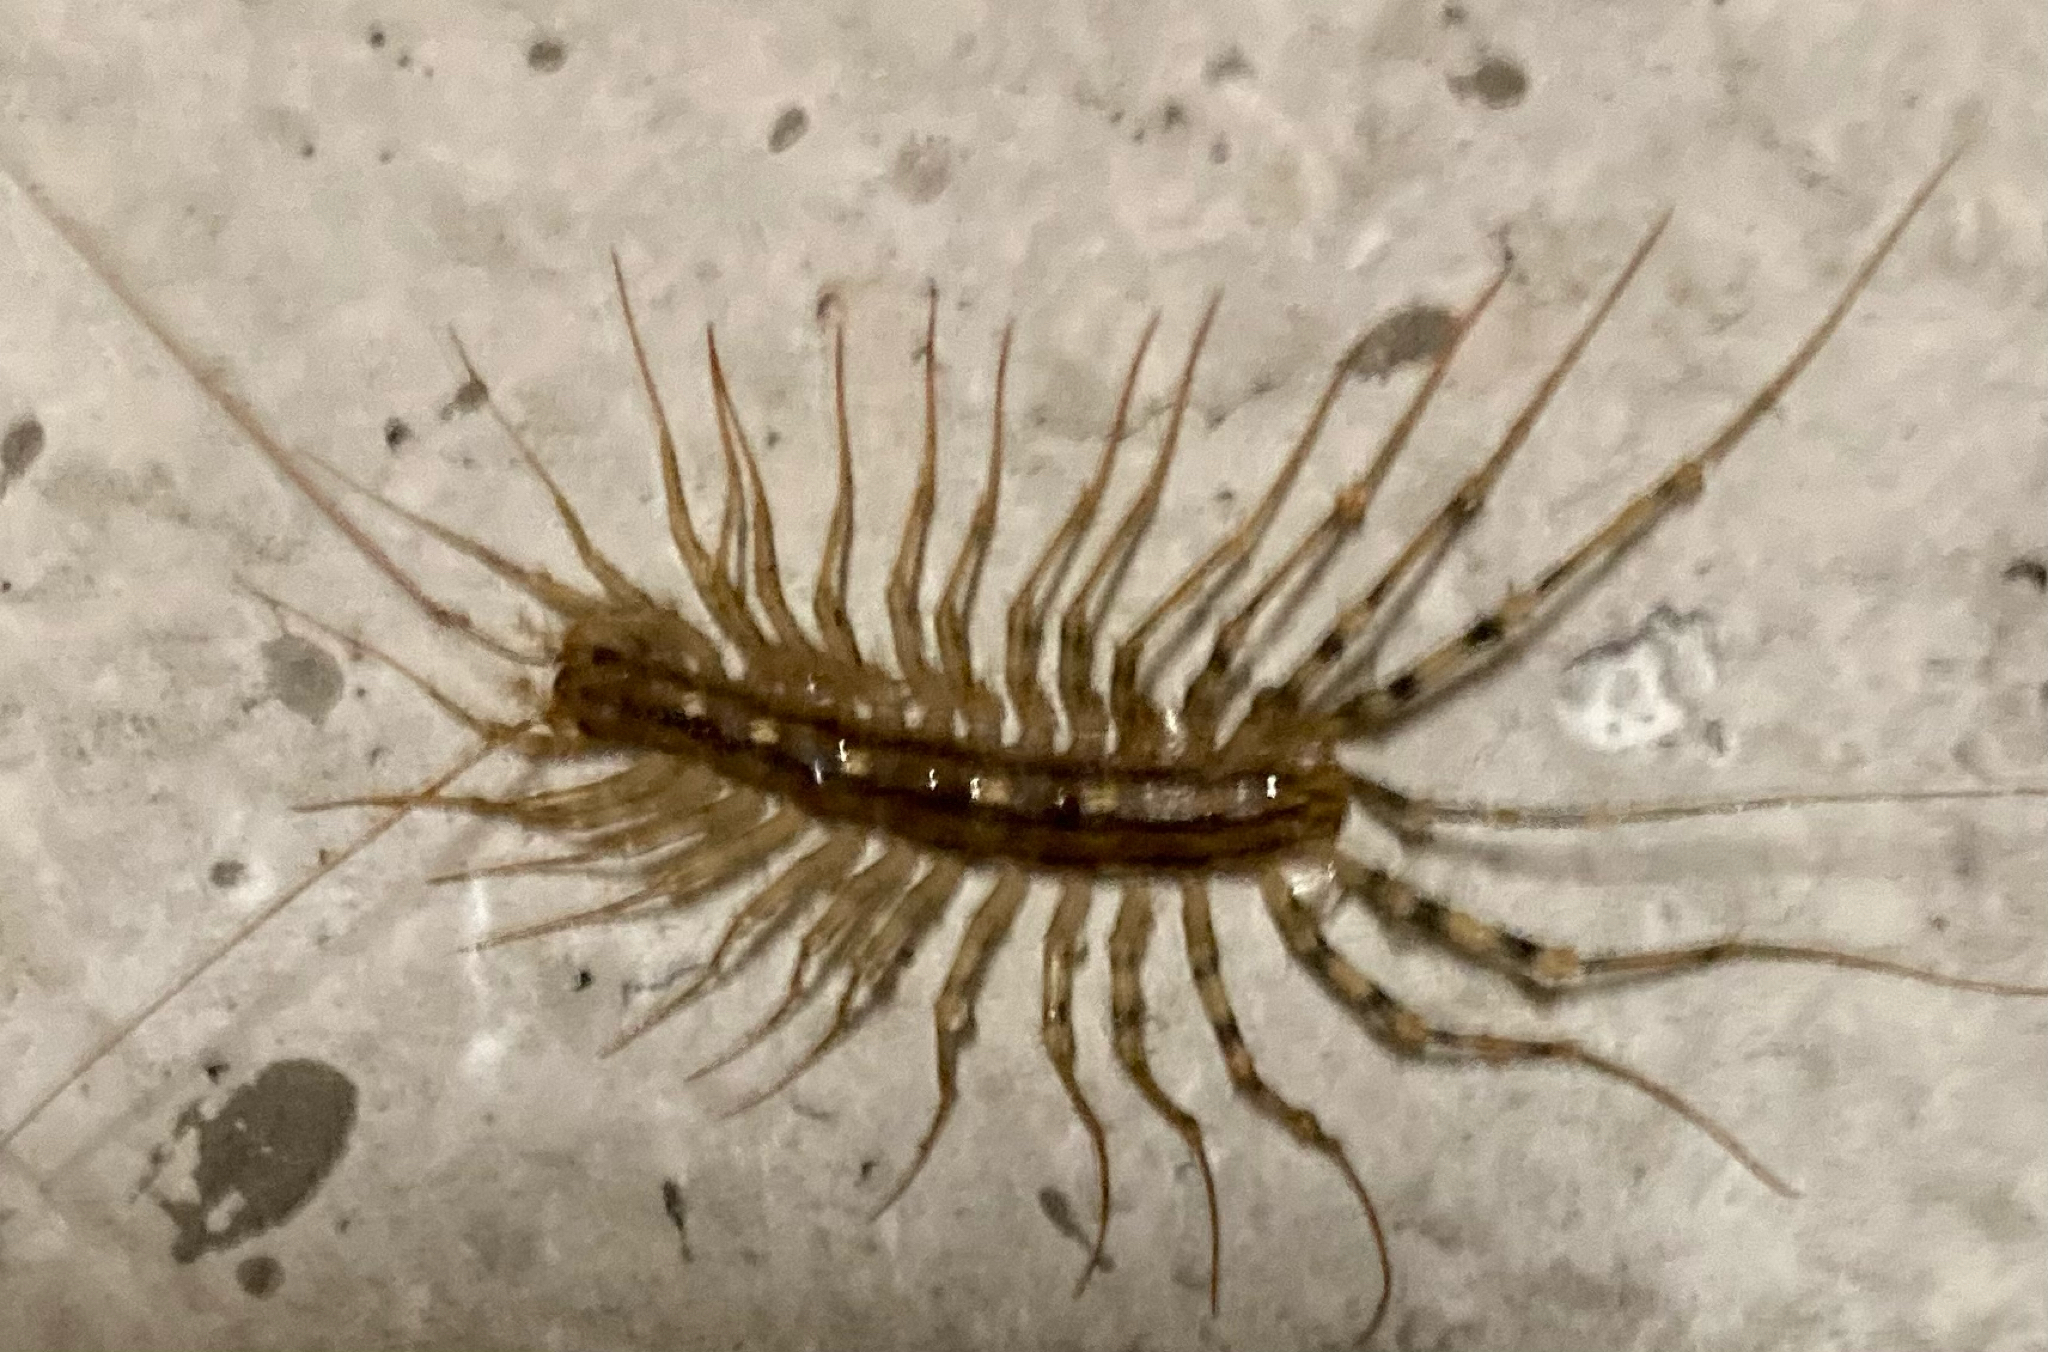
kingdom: Animalia
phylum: Arthropoda
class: Chilopoda
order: Scutigeromorpha
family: Scutigeridae
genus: Scutigera
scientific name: Scutigera coleoptrata
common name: House centipede
